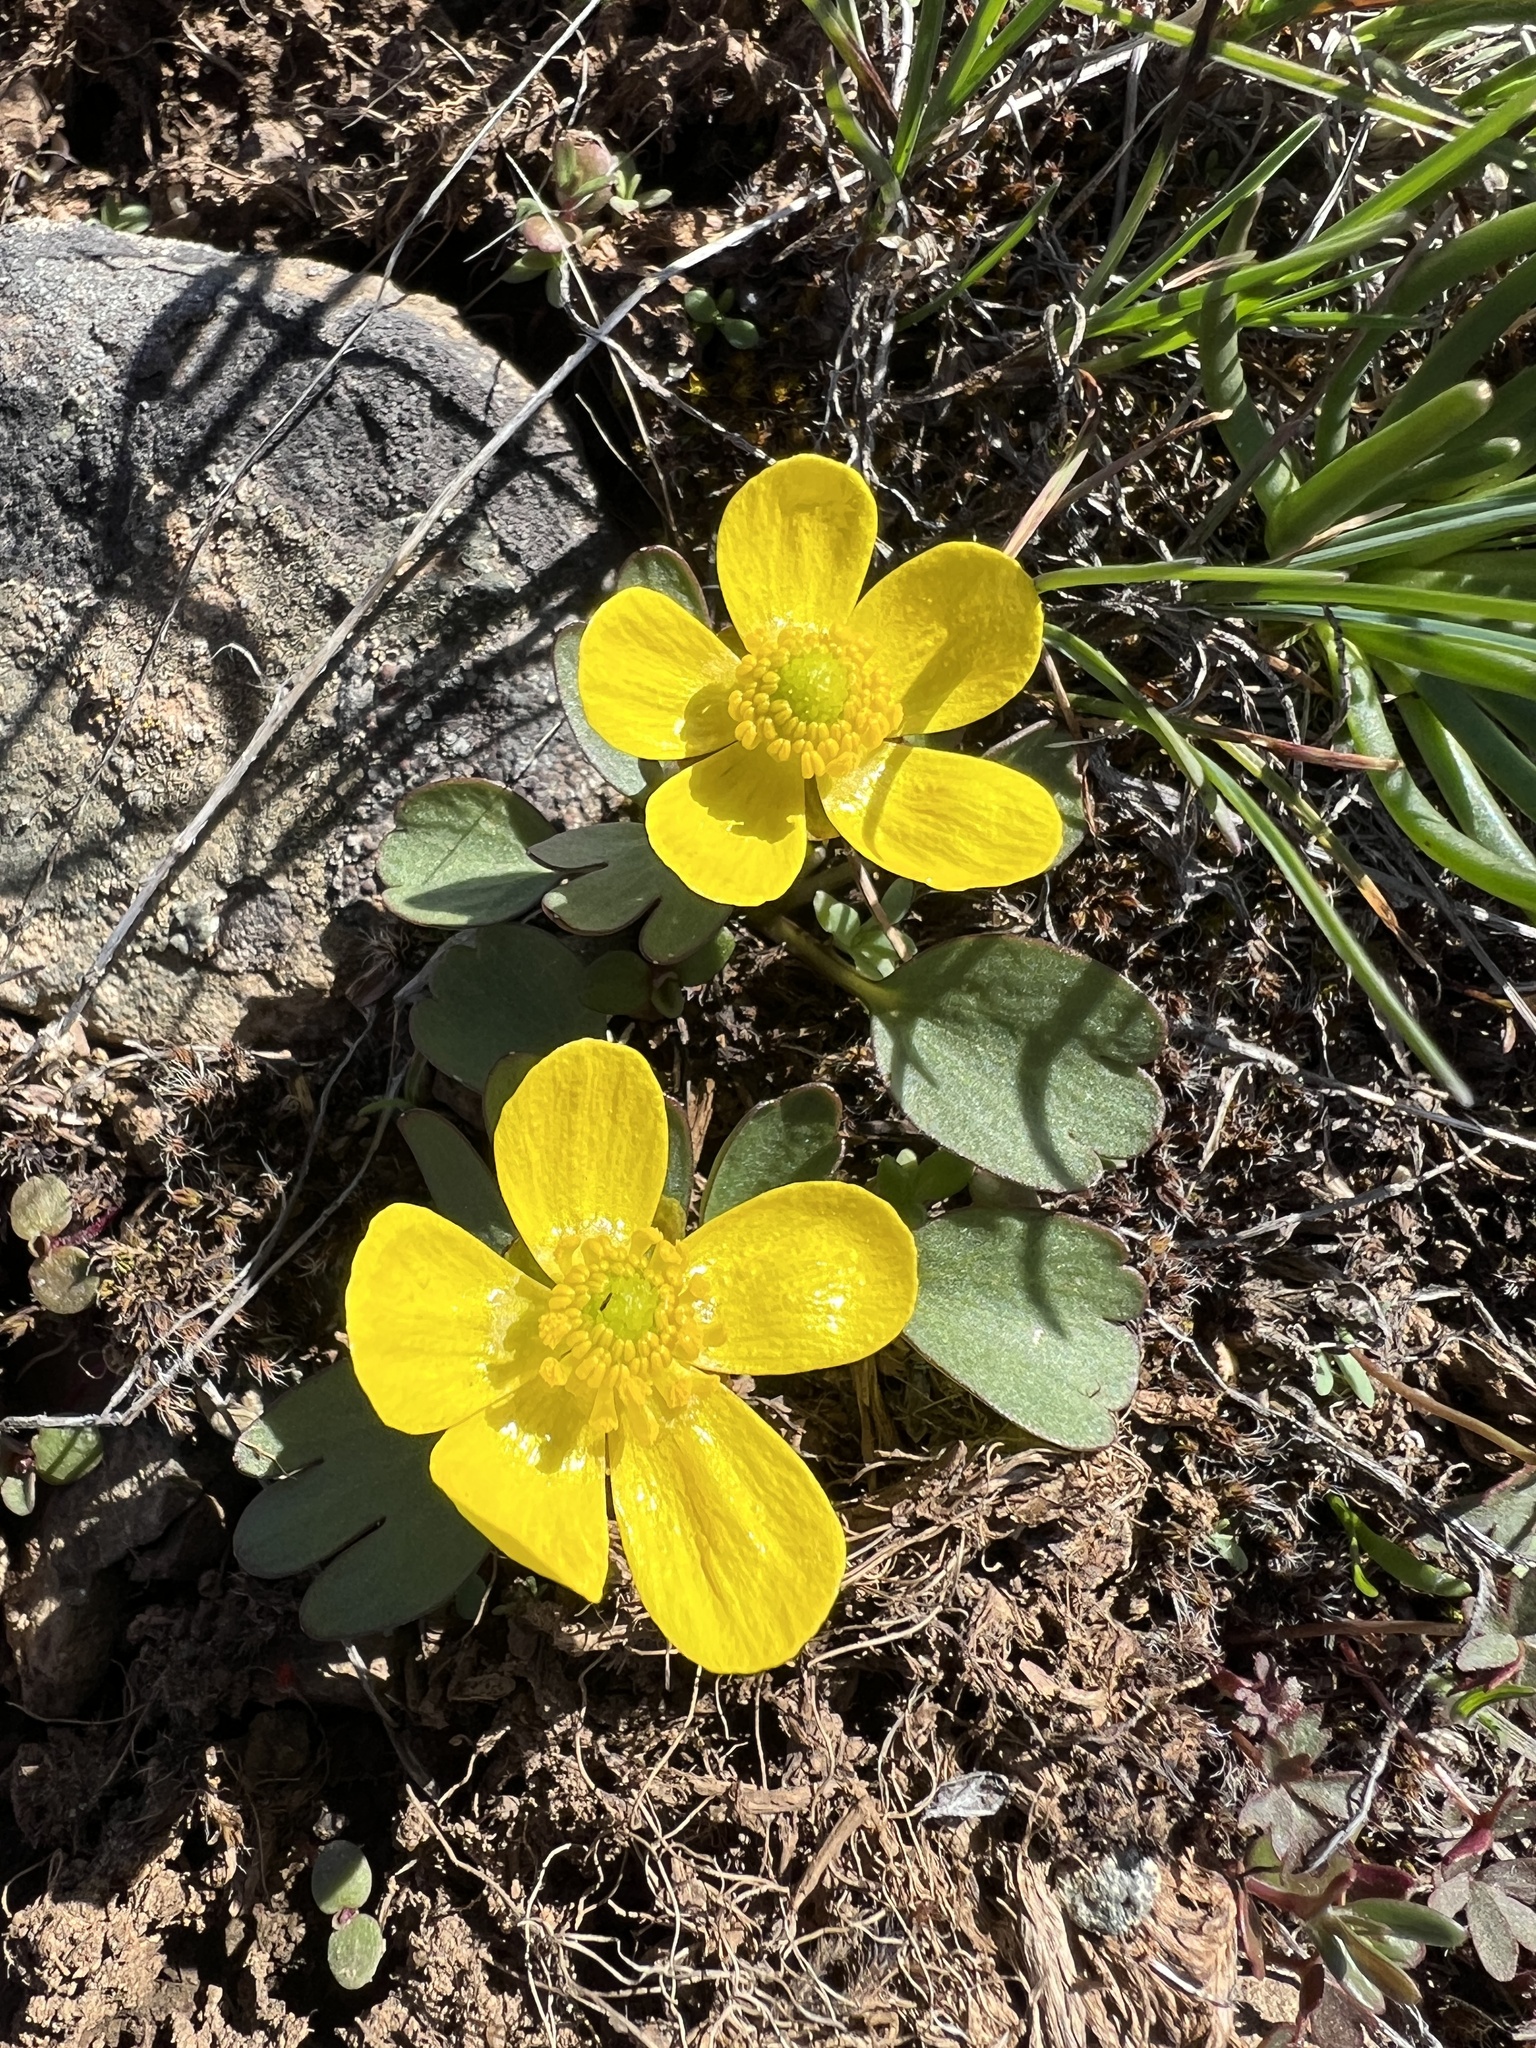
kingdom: Plantae
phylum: Tracheophyta
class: Magnoliopsida
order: Ranunculales
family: Ranunculaceae
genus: Ranunculus
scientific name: Ranunculus glaberrimus
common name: Sagebrush buttercup
